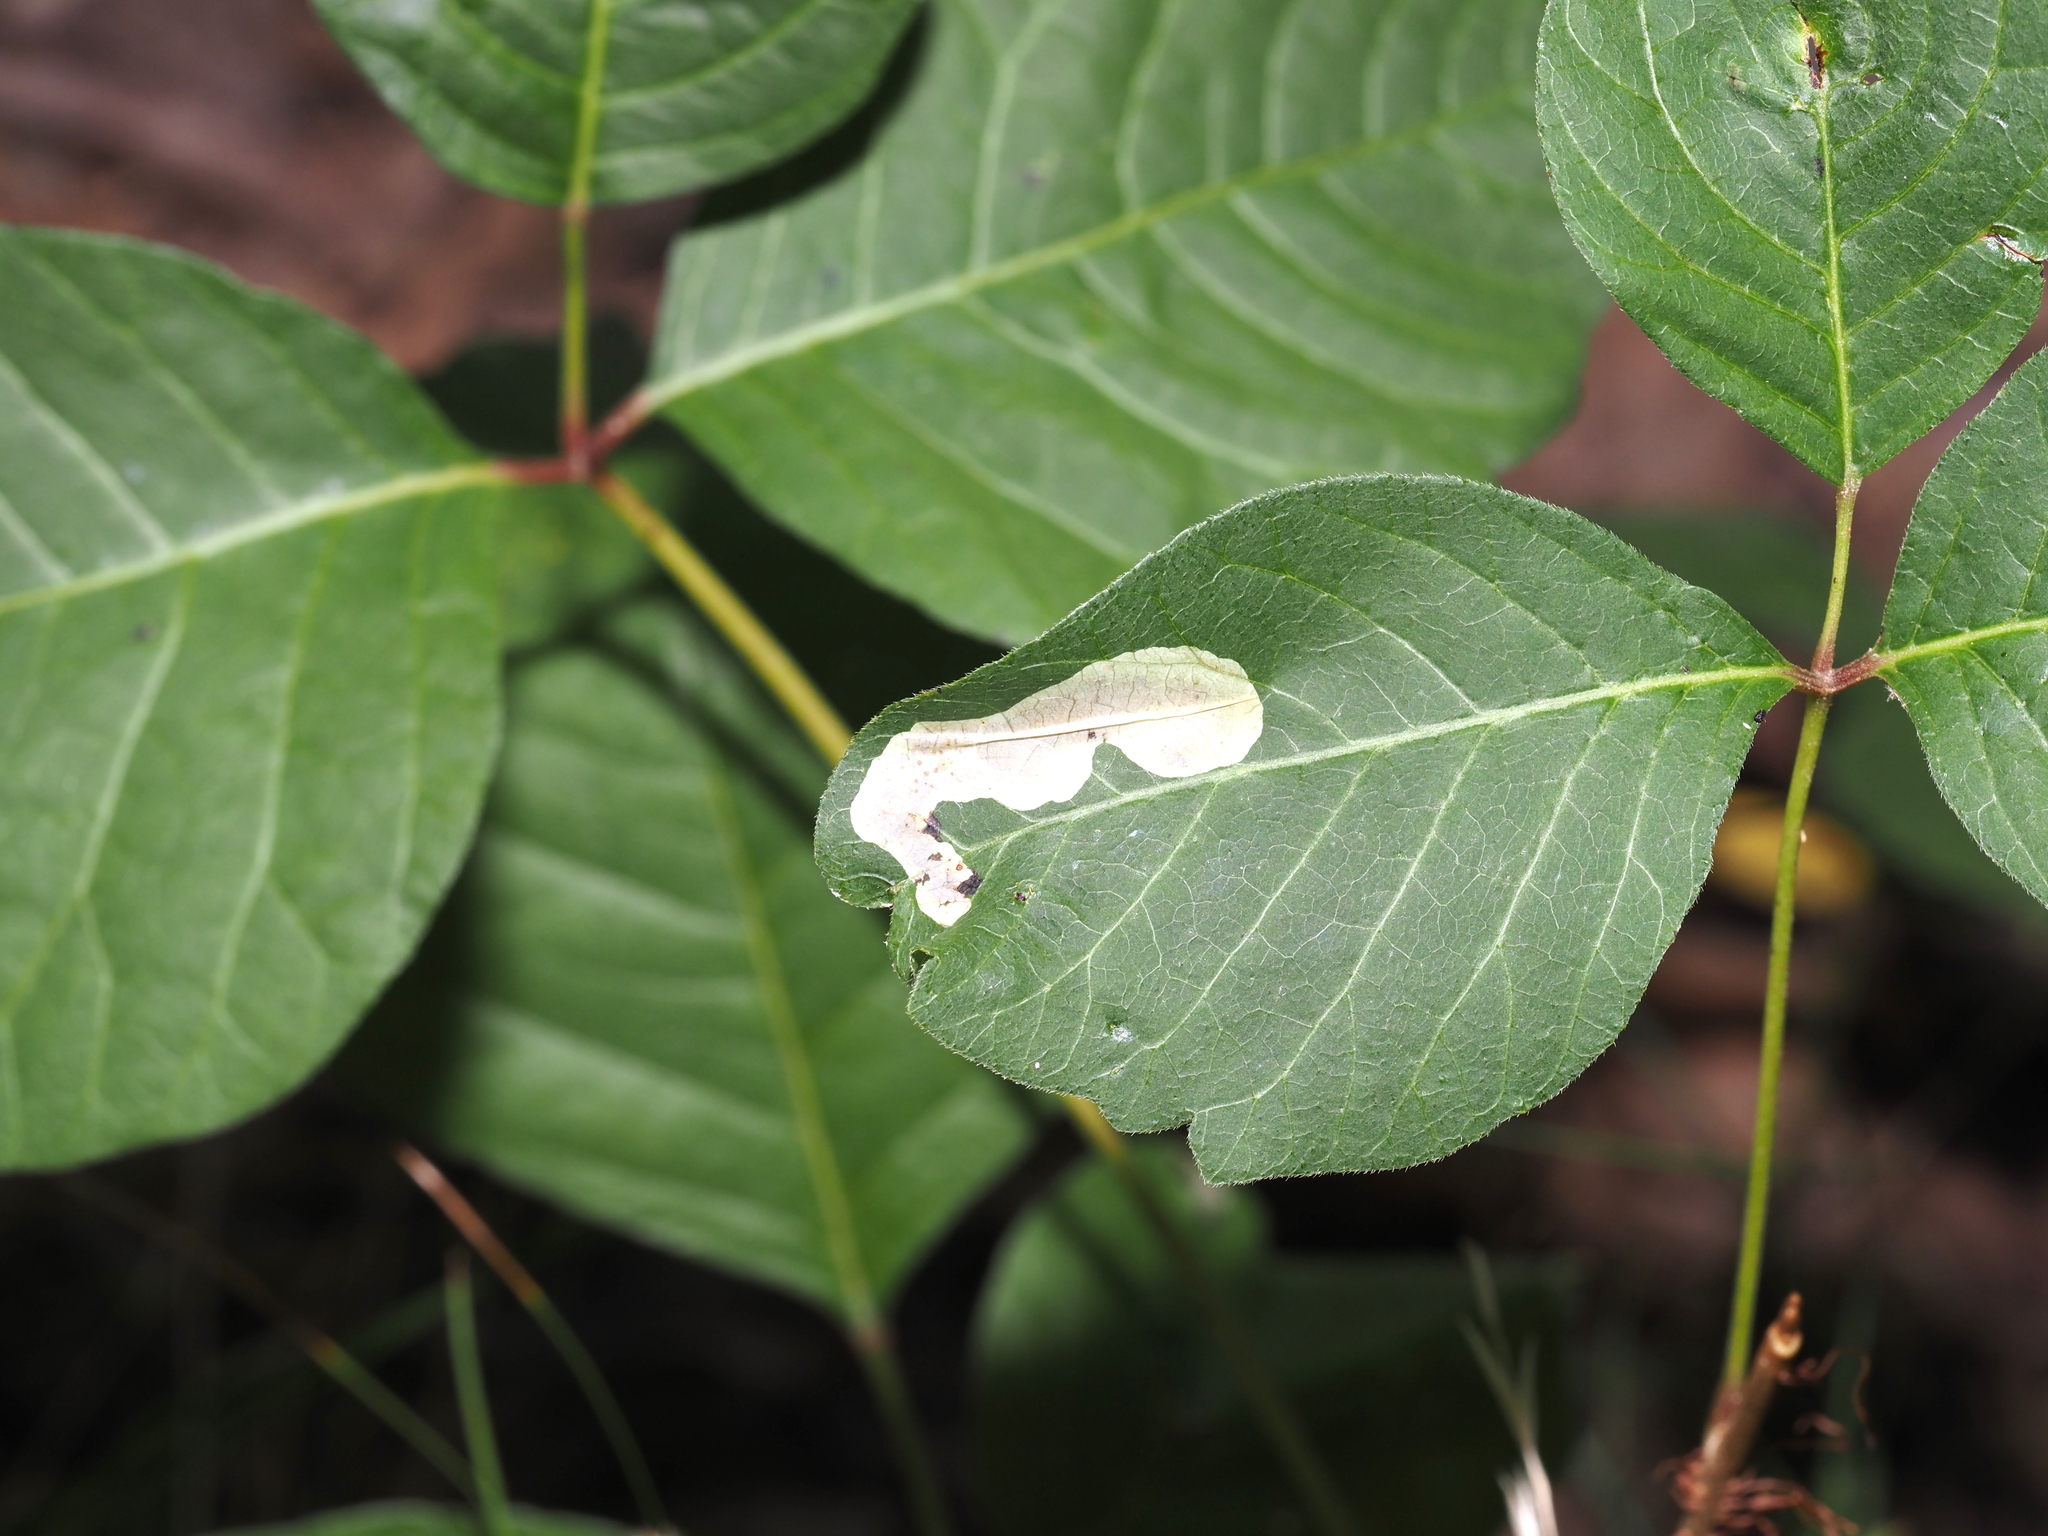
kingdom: Animalia
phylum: Arthropoda
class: Insecta
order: Lepidoptera
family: Gracillariidae
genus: Cameraria
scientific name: Cameraria guttifinitella
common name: Poison ivy leaf-miner moth
